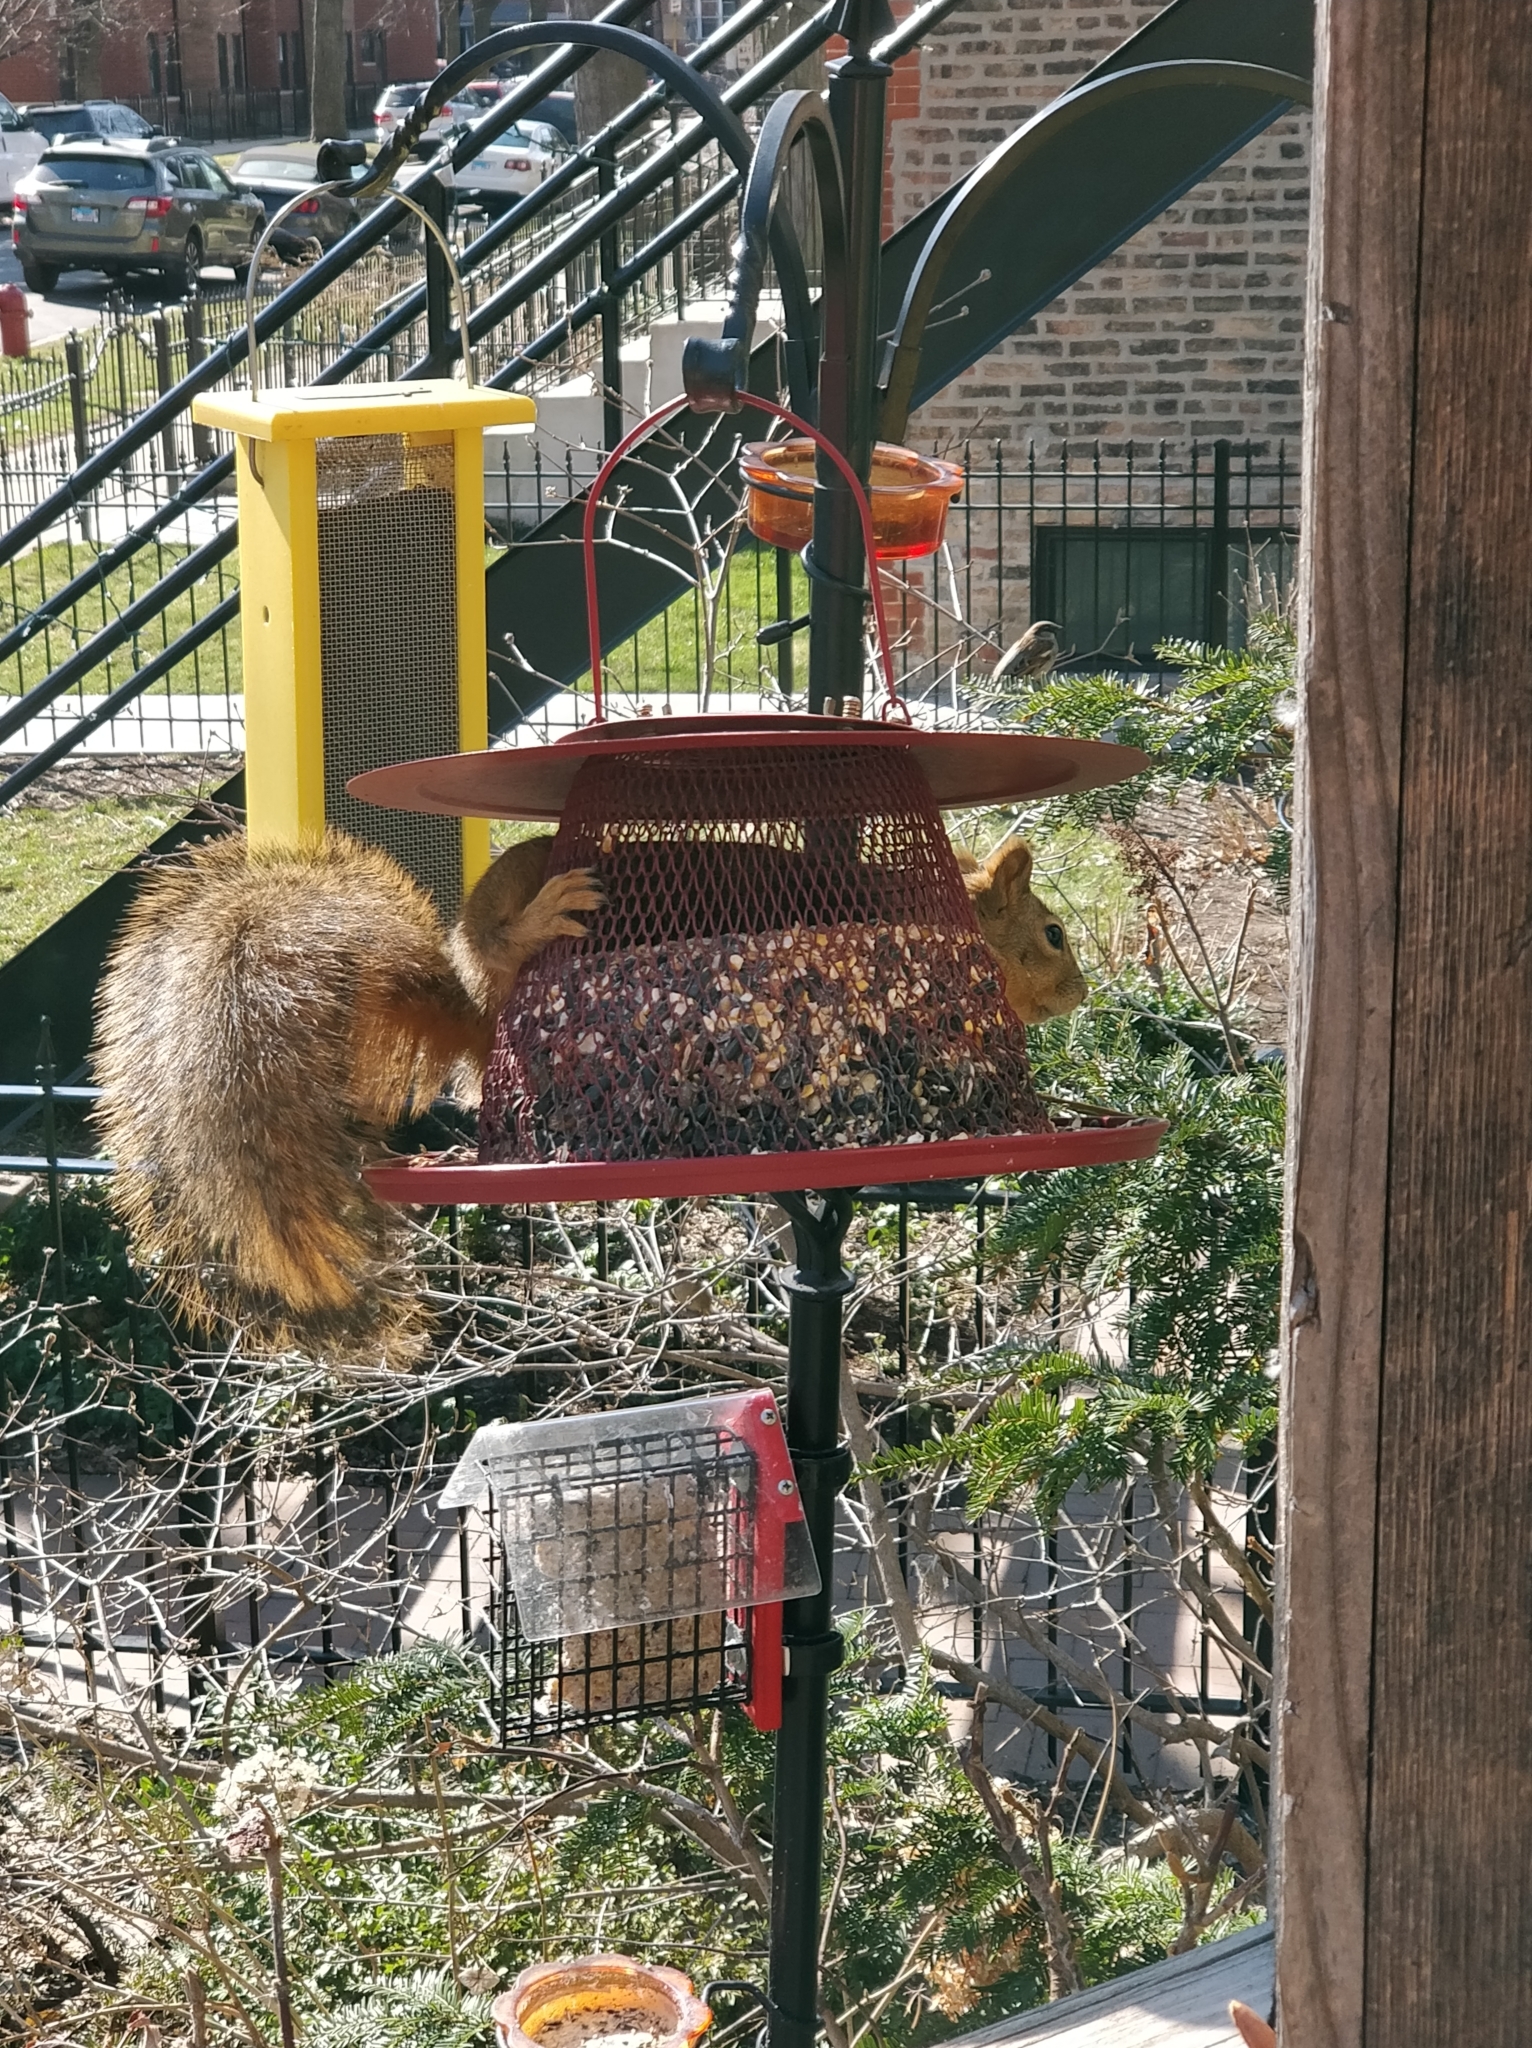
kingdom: Animalia
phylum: Chordata
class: Mammalia
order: Rodentia
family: Sciuridae
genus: Sciurus
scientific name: Sciurus niger
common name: Fox squirrel
